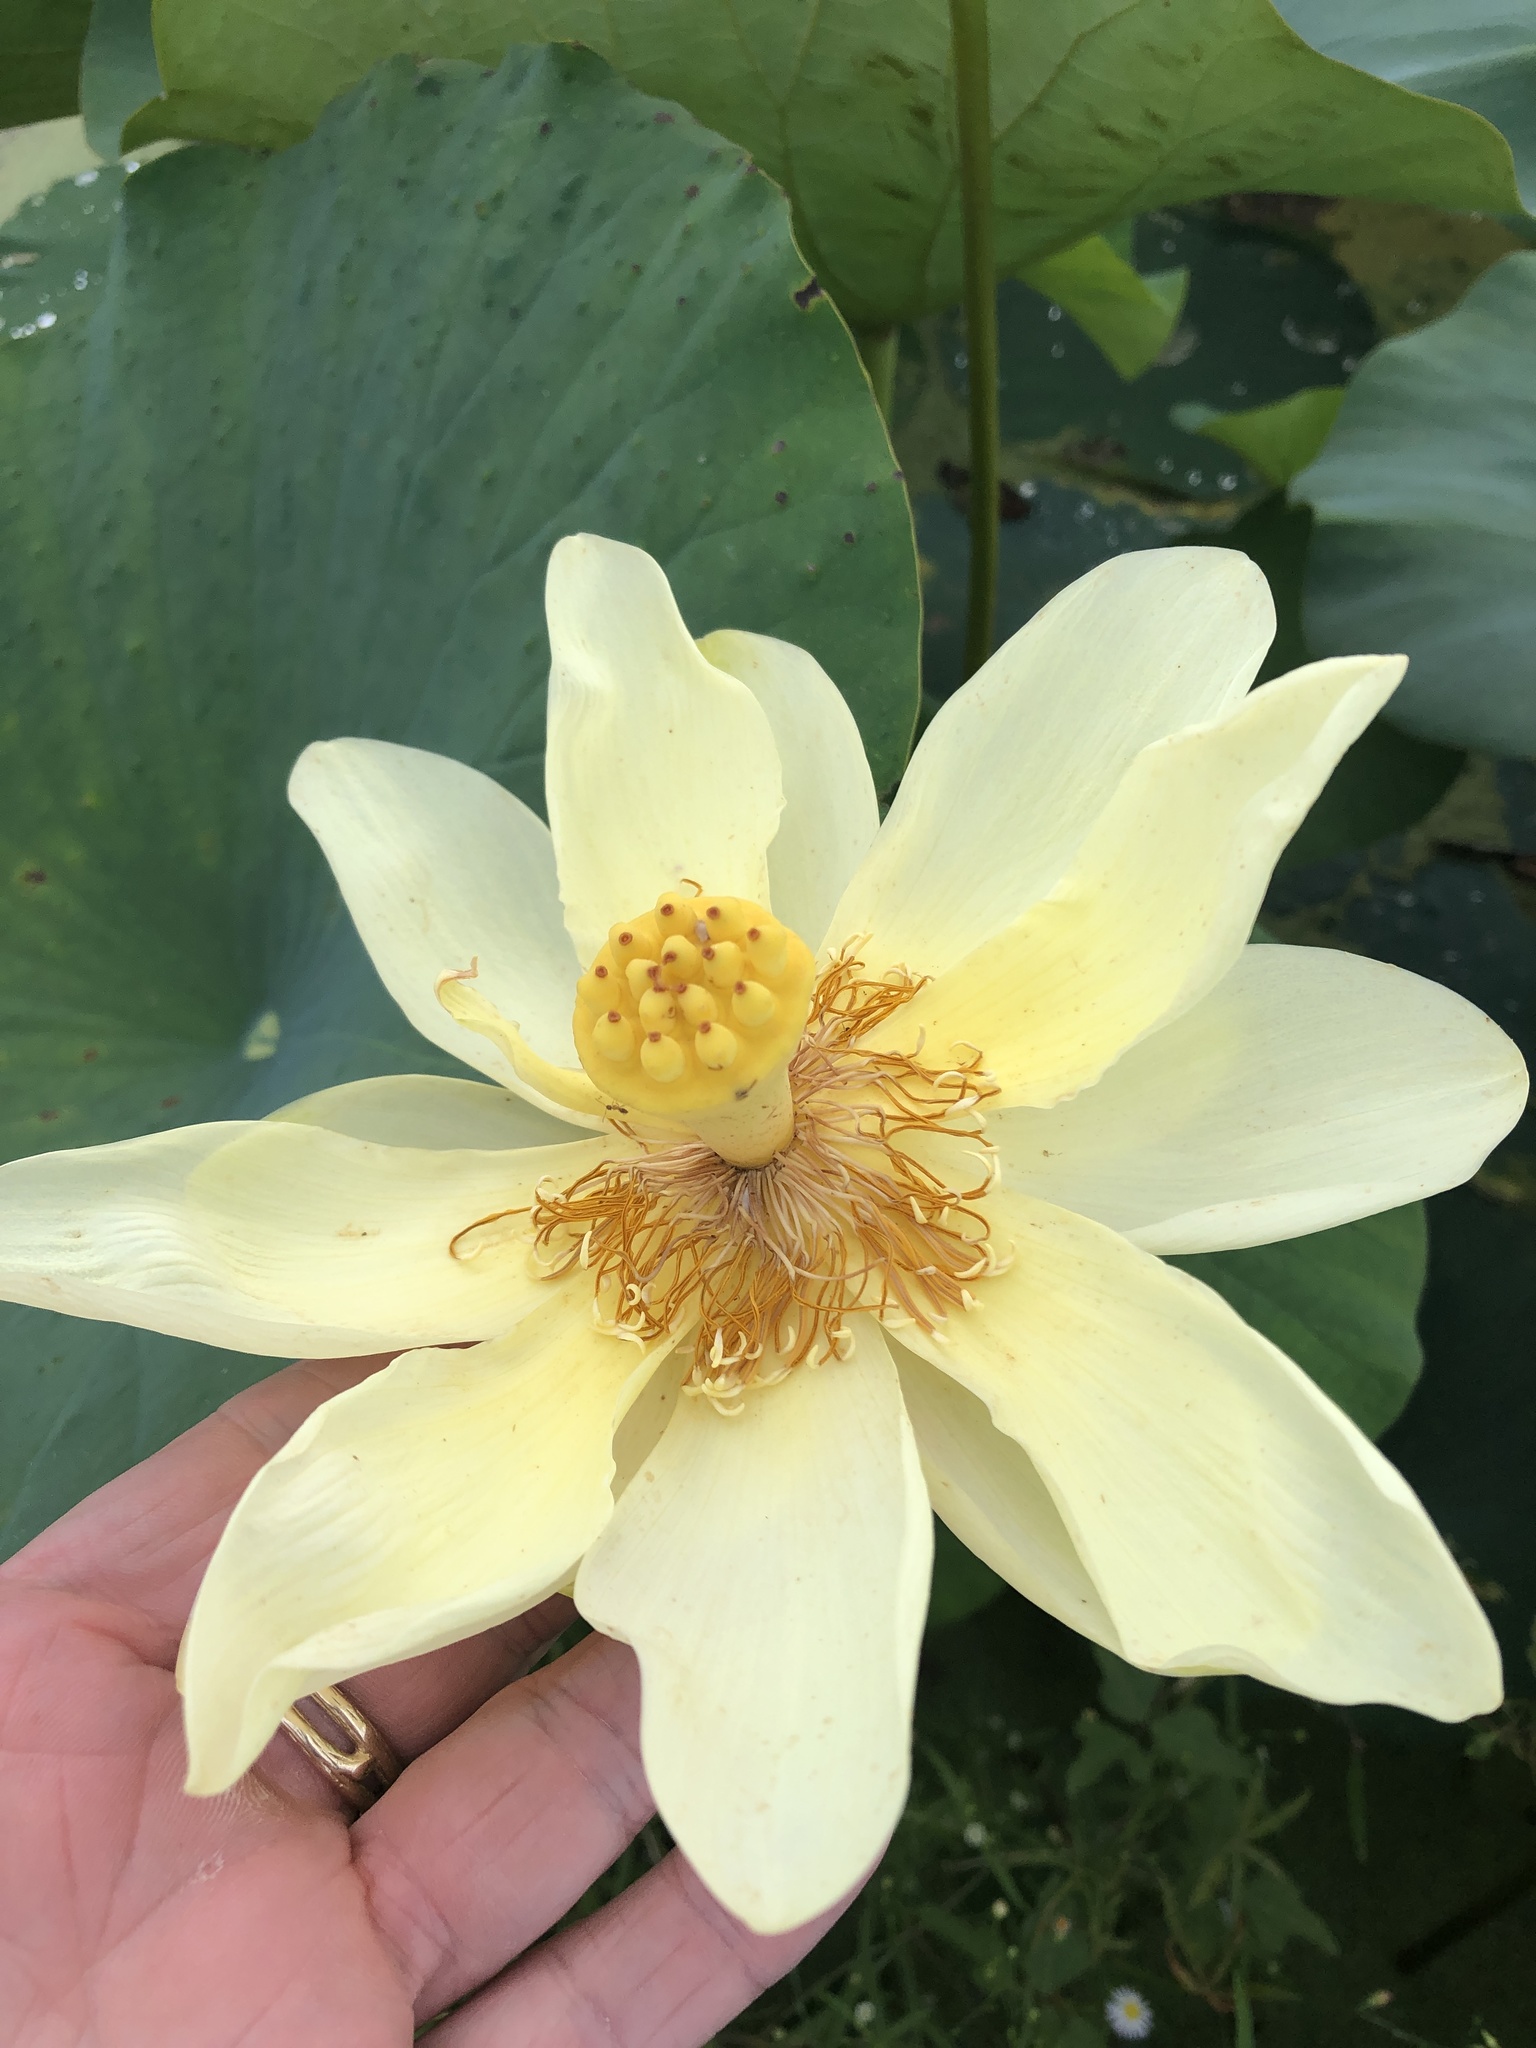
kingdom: Plantae
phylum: Tracheophyta
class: Magnoliopsida
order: Proteales
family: Nelumbonaceae
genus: Nelumbo
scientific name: Nelumbo lutea
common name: American lotus
